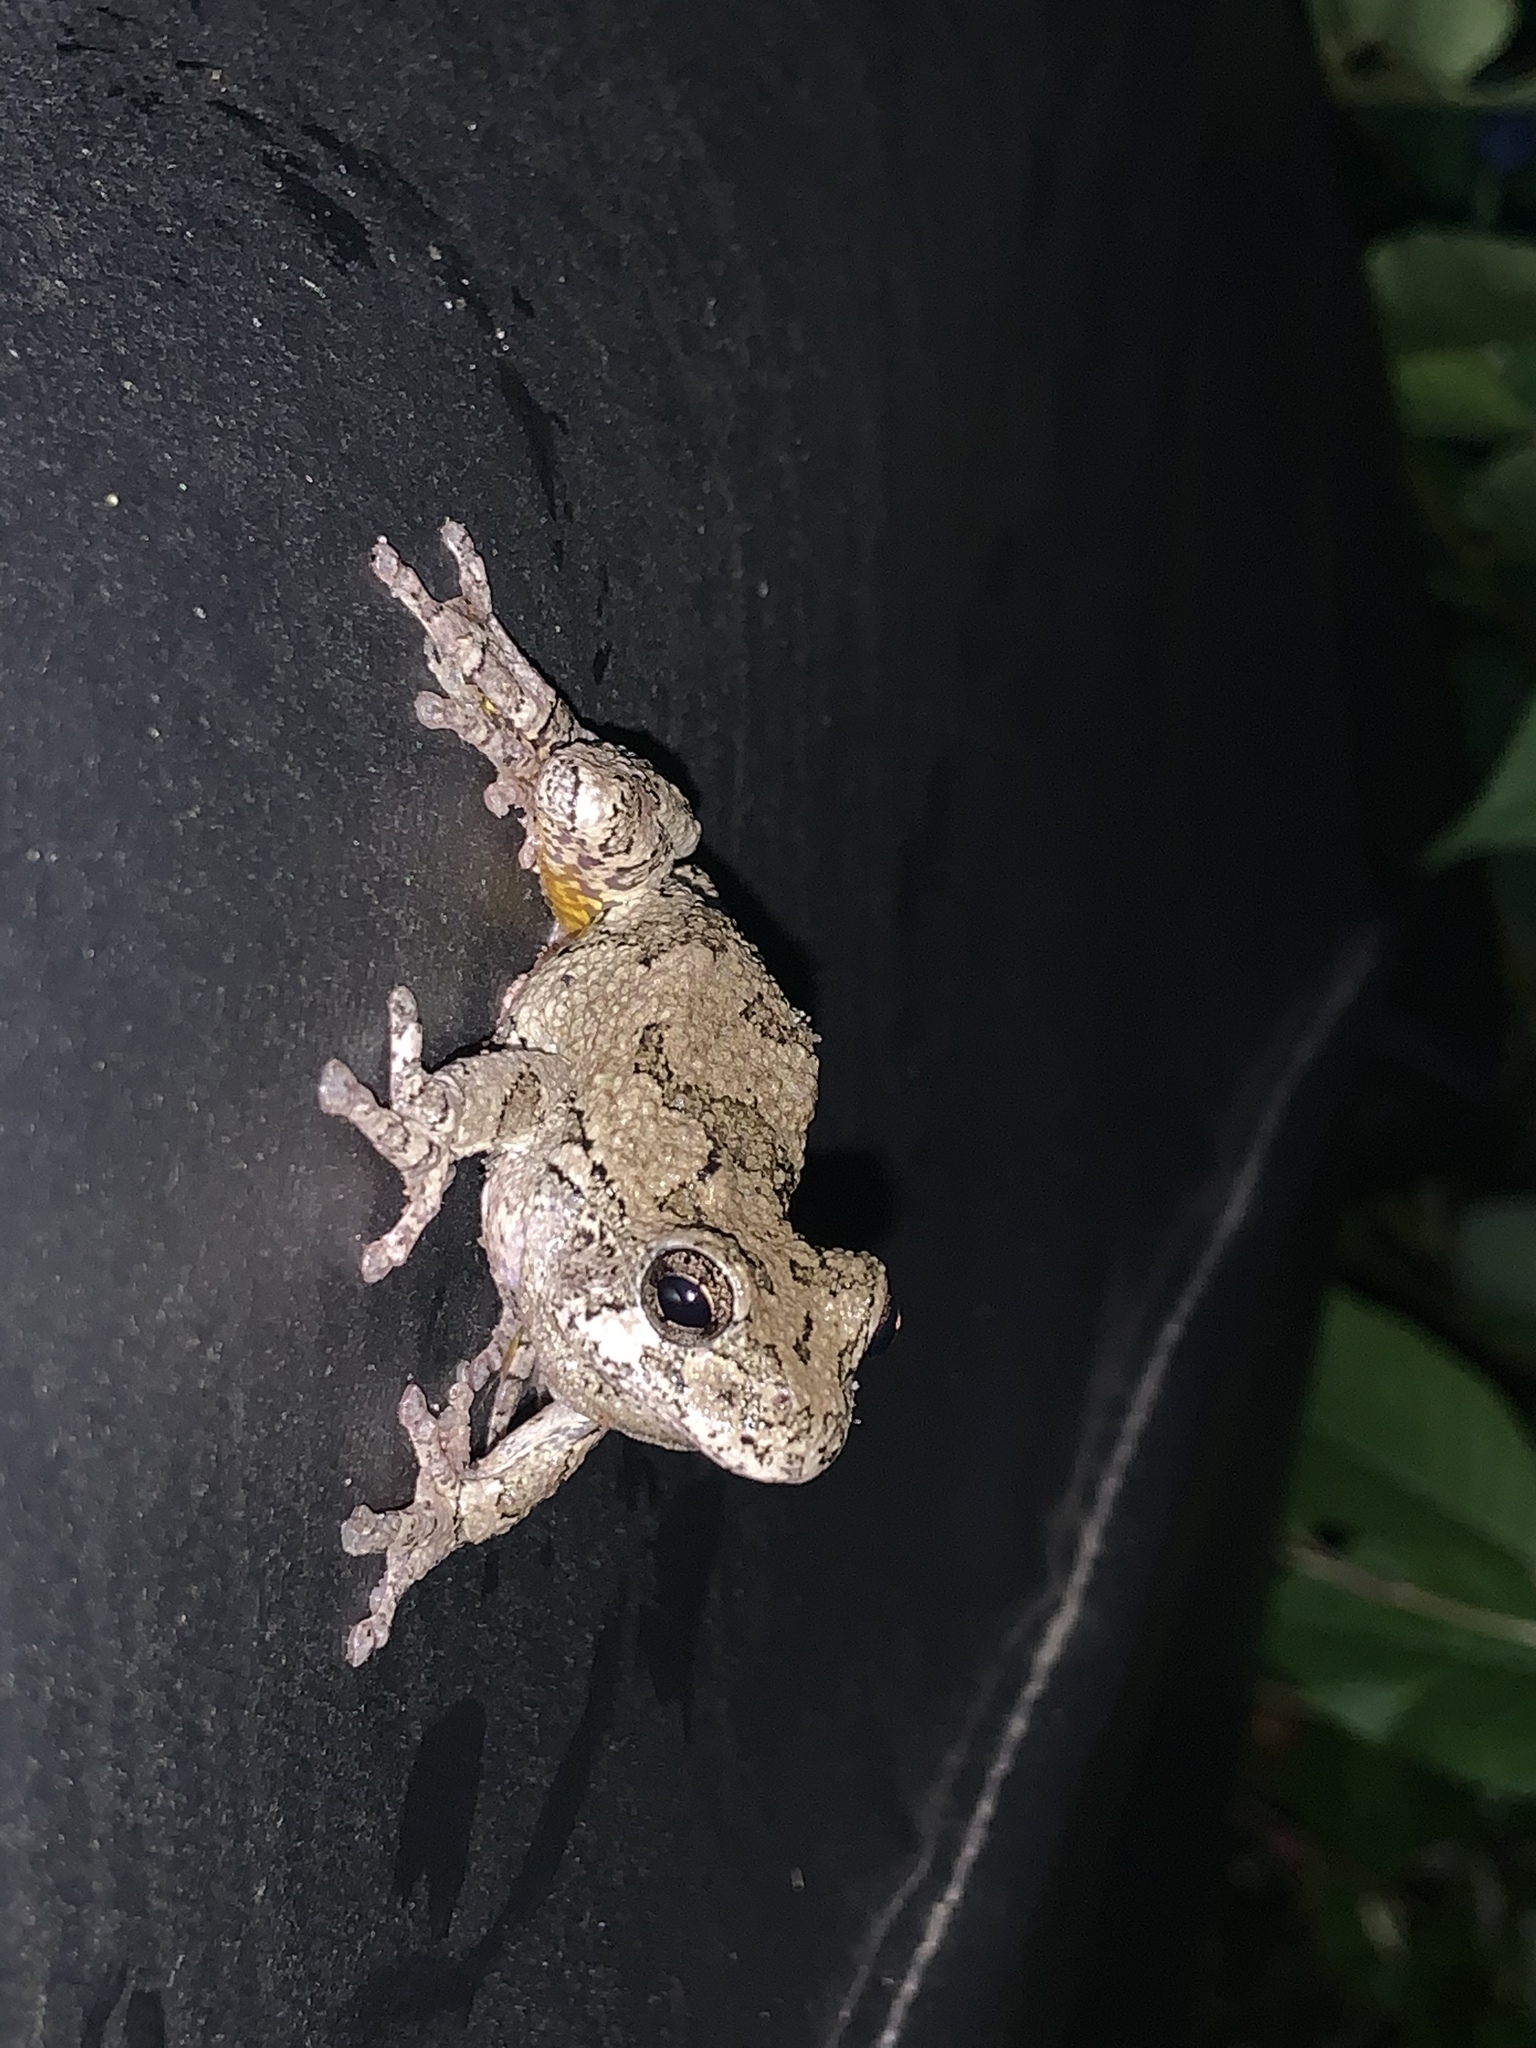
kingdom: Animalia
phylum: Chordata
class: Amphibia
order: Anura
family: Hylidae
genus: Dryophytes
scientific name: Dryophytes versicolor
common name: Gray treefrog
